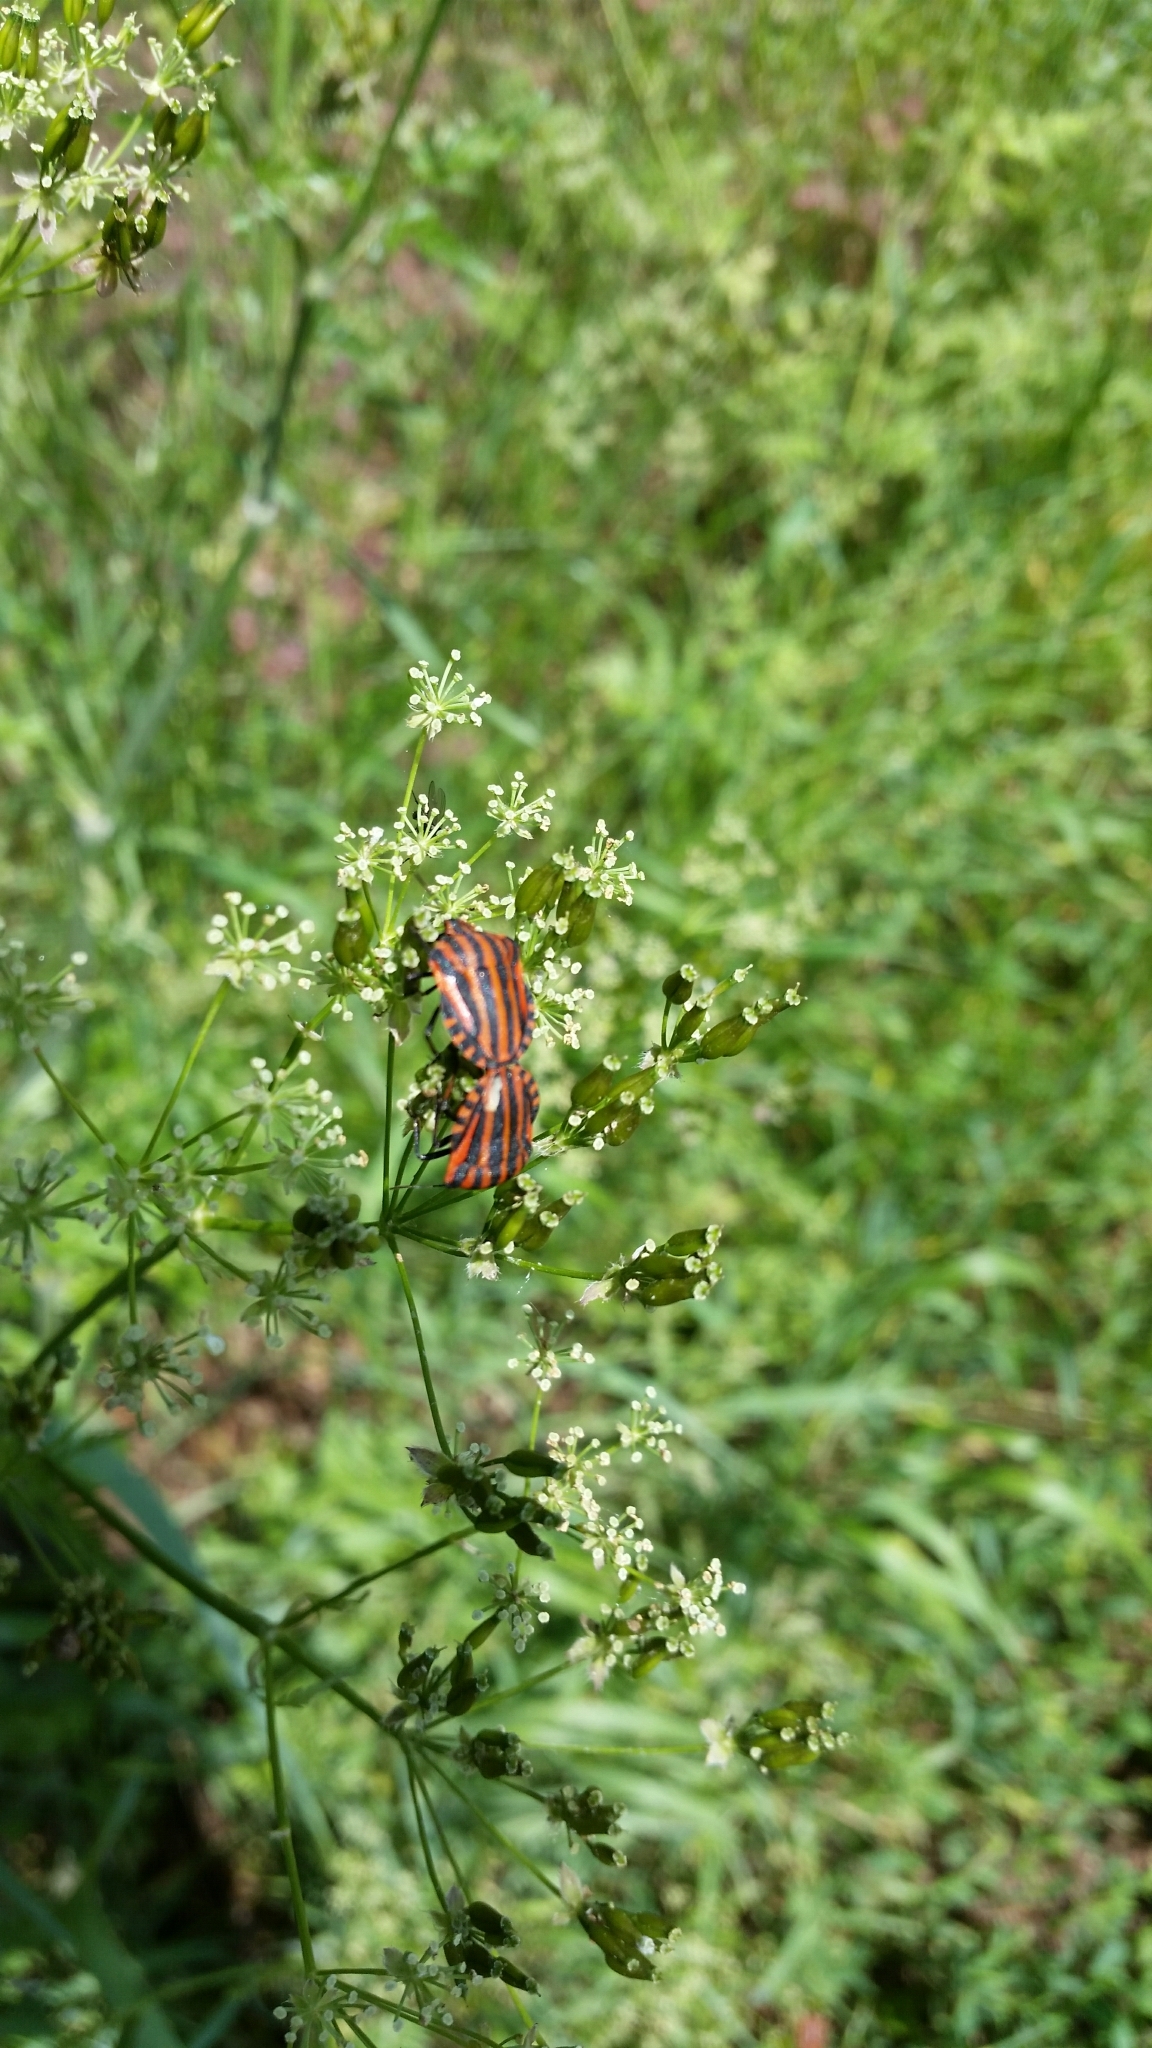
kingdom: Animalia
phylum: Arthropoda
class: Insecta
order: Hemiptera
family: Pentatomidae
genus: Graphosoma
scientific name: Graphosoma italicum
